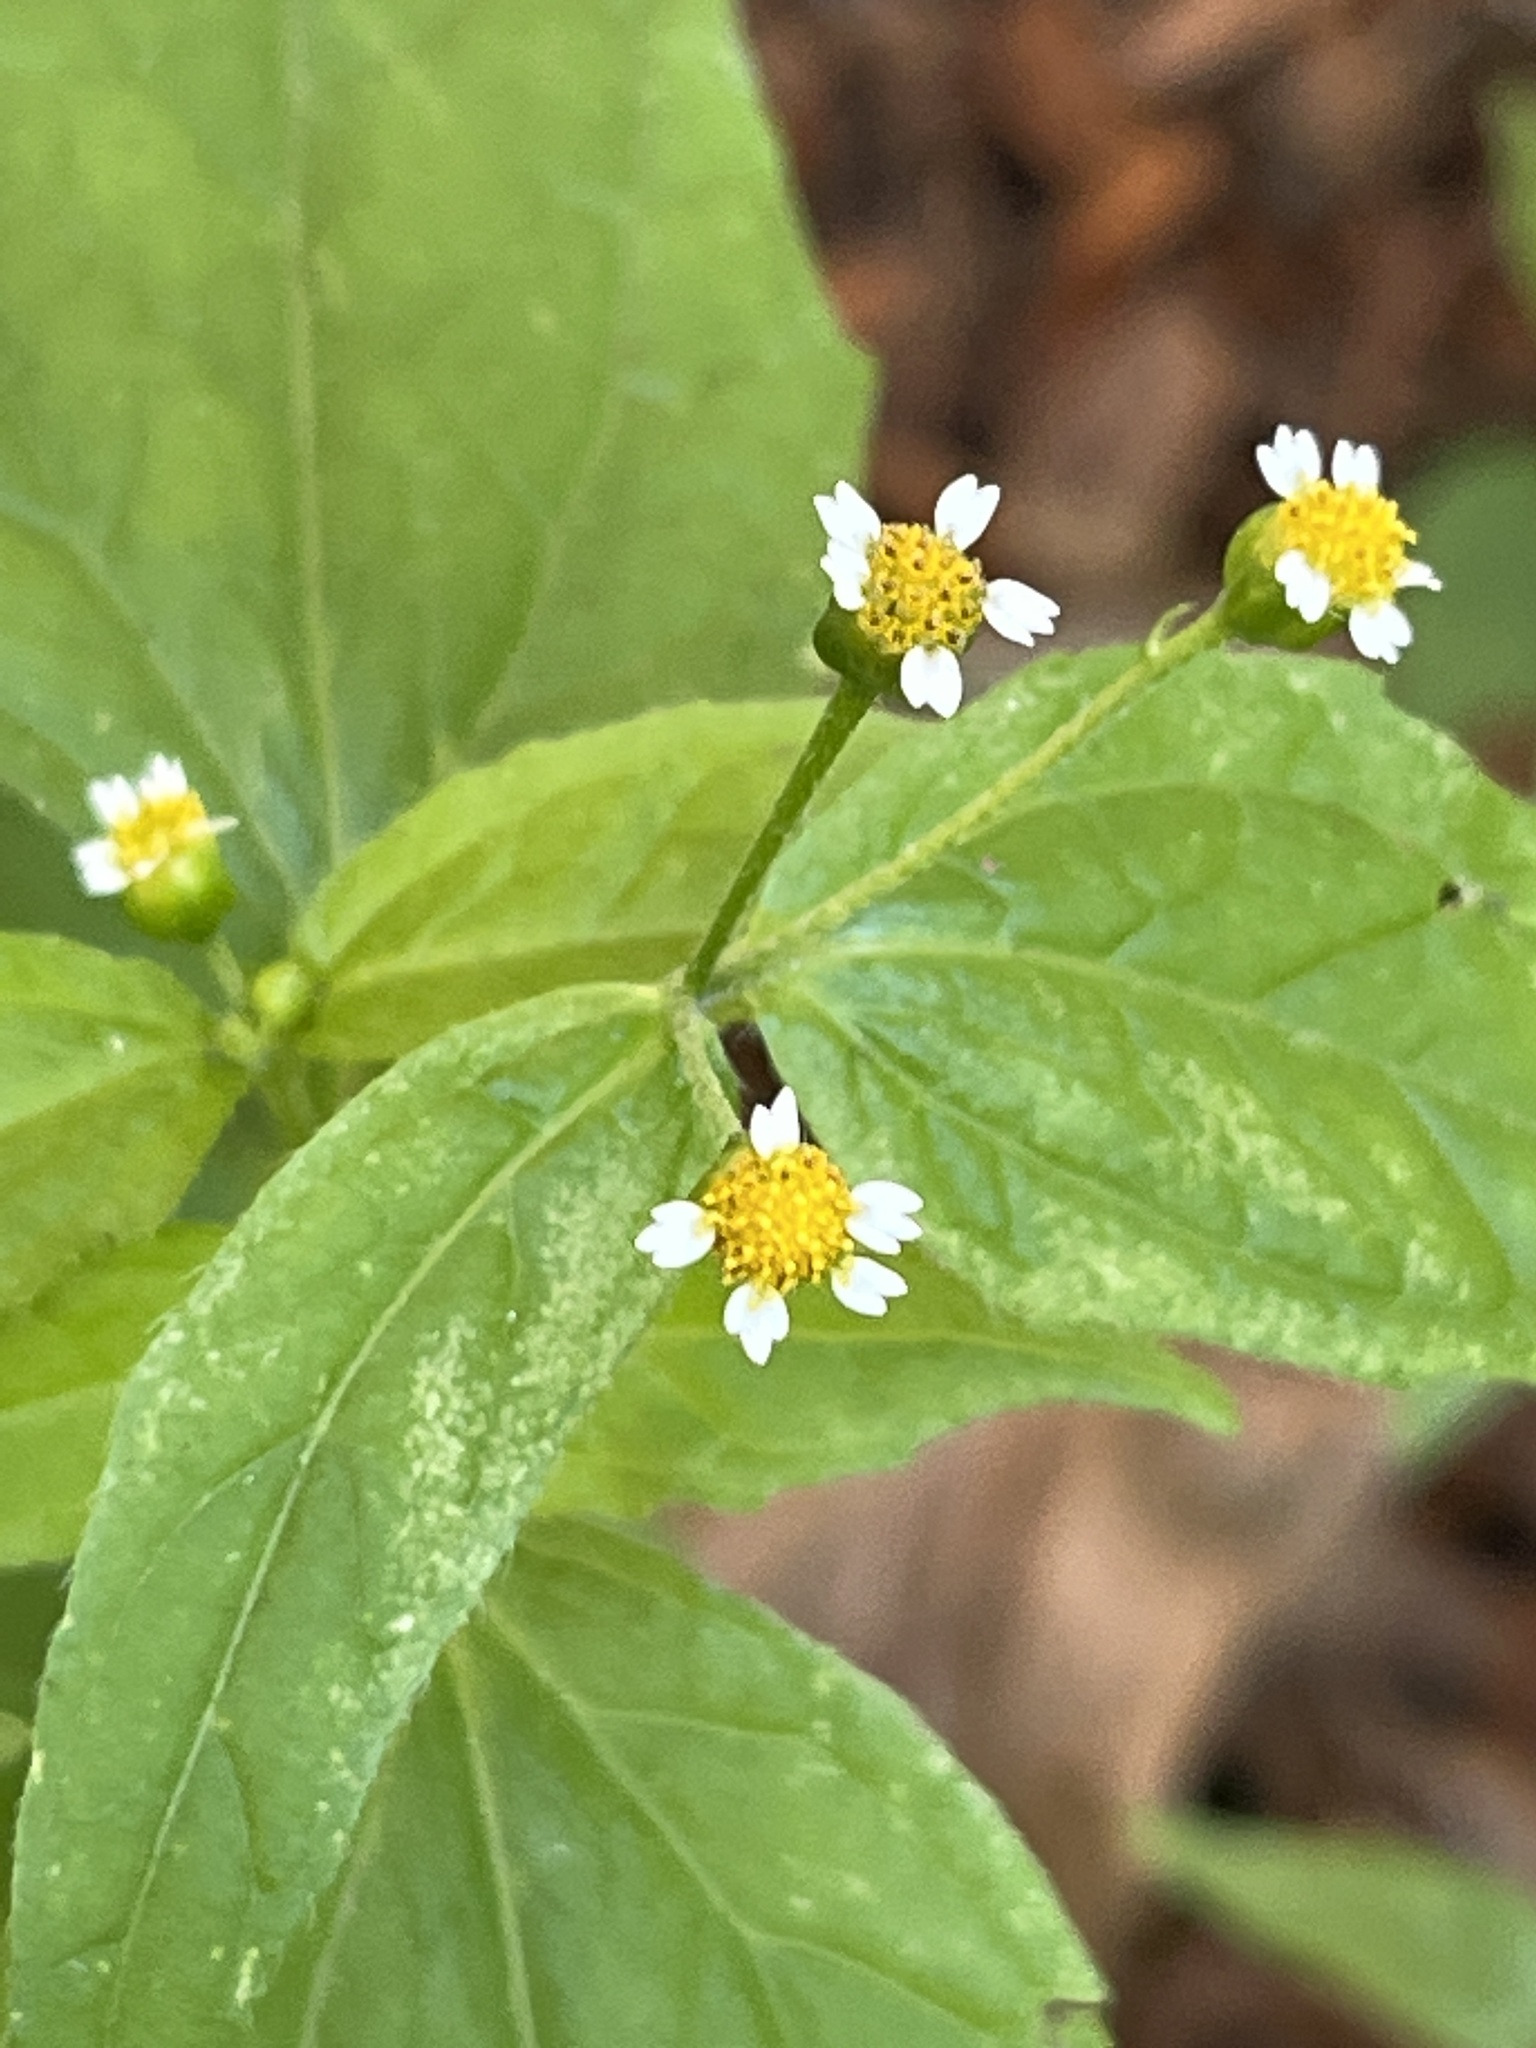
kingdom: Plantae
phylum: Tracheophyta
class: Magnoliopsida
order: Asterales
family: Asteraceae
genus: Galinsoga
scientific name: Galinsoga parviflora
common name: Gallant soldier
